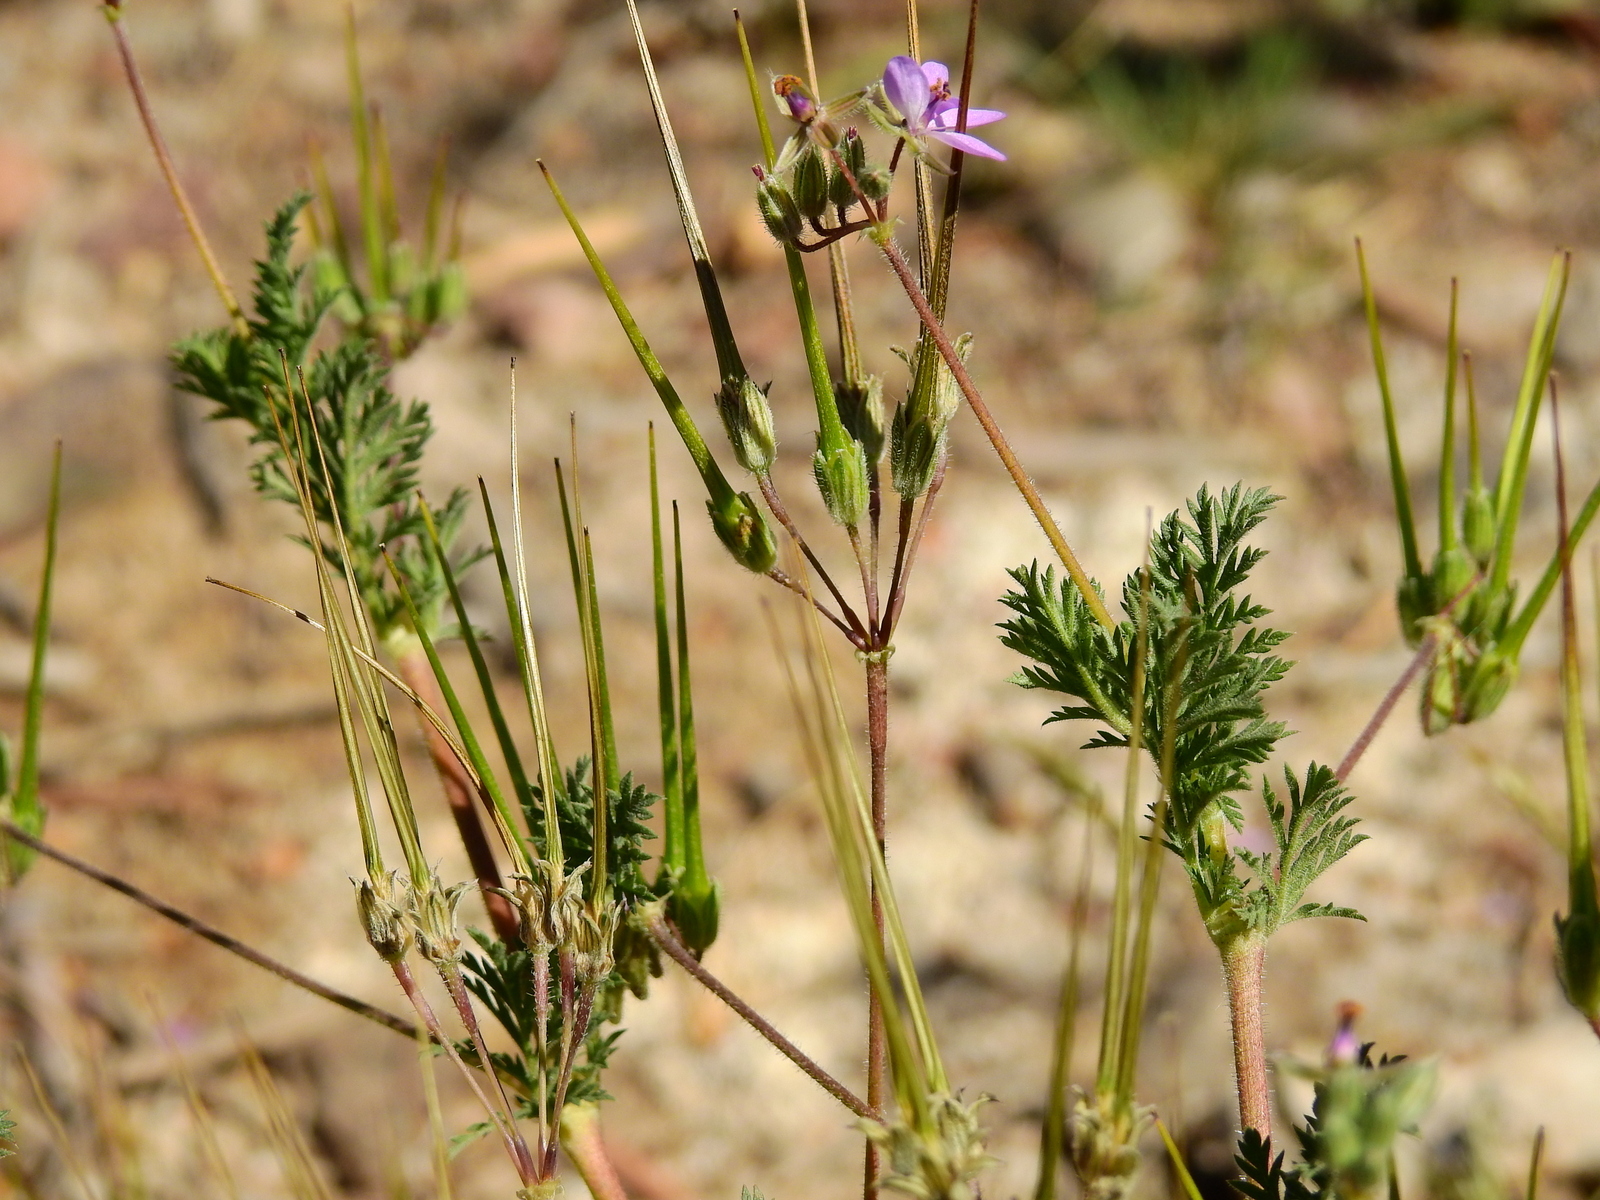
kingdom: Plantae
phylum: Tracheophyta
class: Magnoliopsida
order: Geraniales
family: Geraniaceae
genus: Erodium
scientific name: Erodium cicutarium
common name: Common stork's-bill
